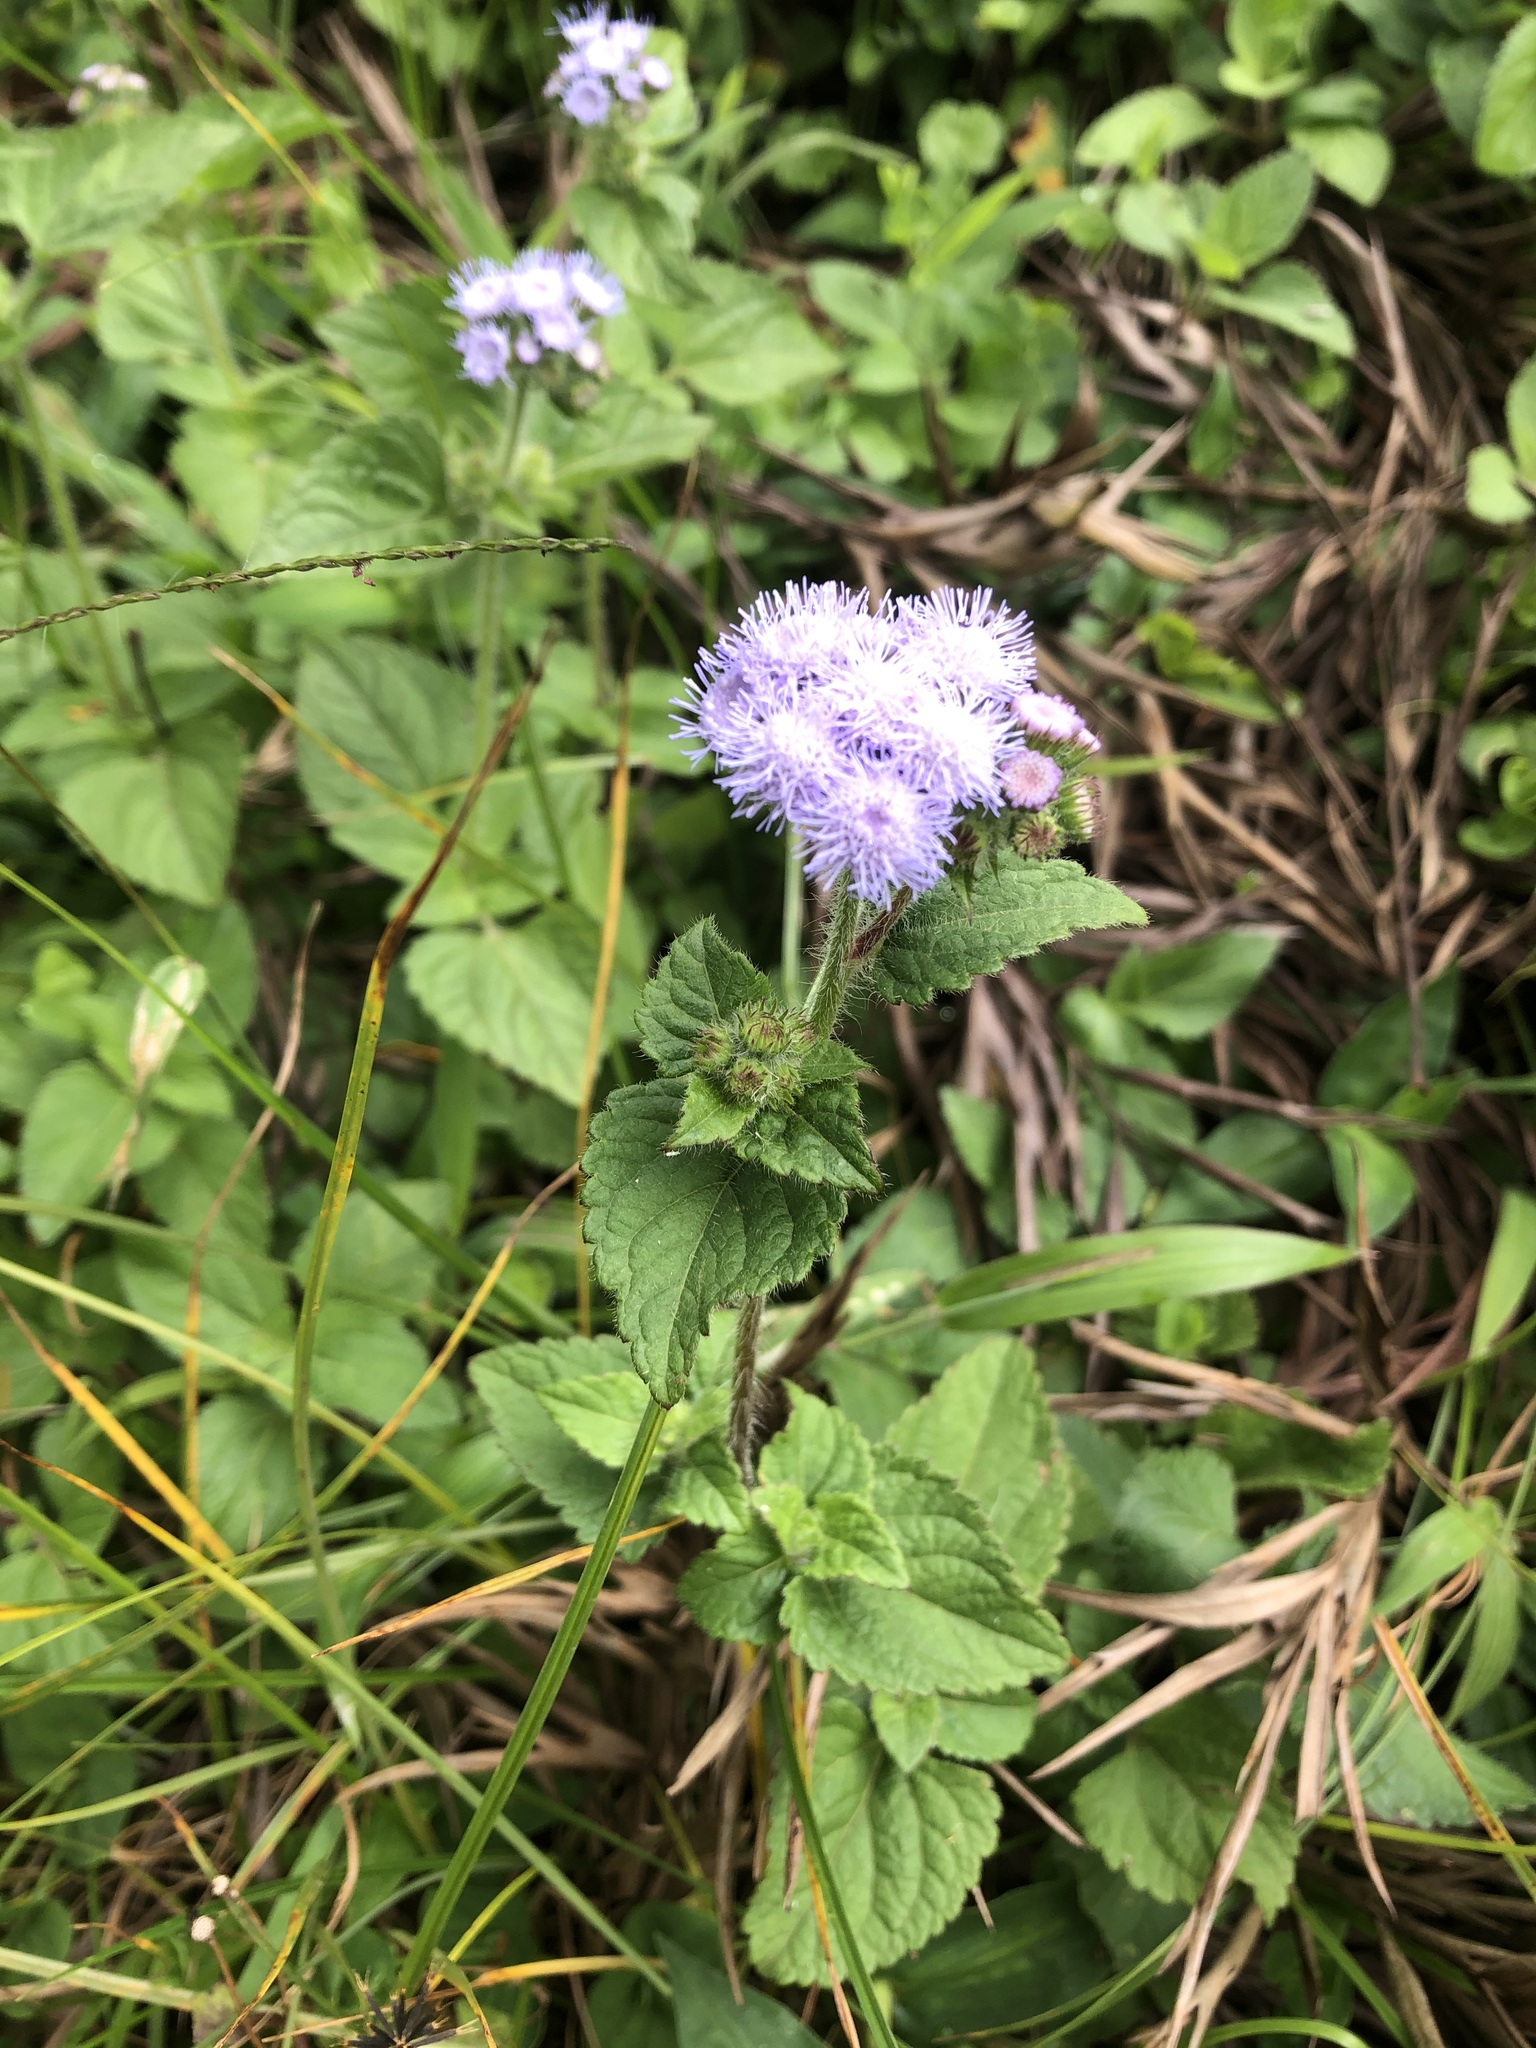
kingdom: Plantae
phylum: Tracheophyta
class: Magnoliopsida
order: Asterales
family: Asteraceae
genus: Ageratum
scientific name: Ageratum houstonianum
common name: Bluemink
